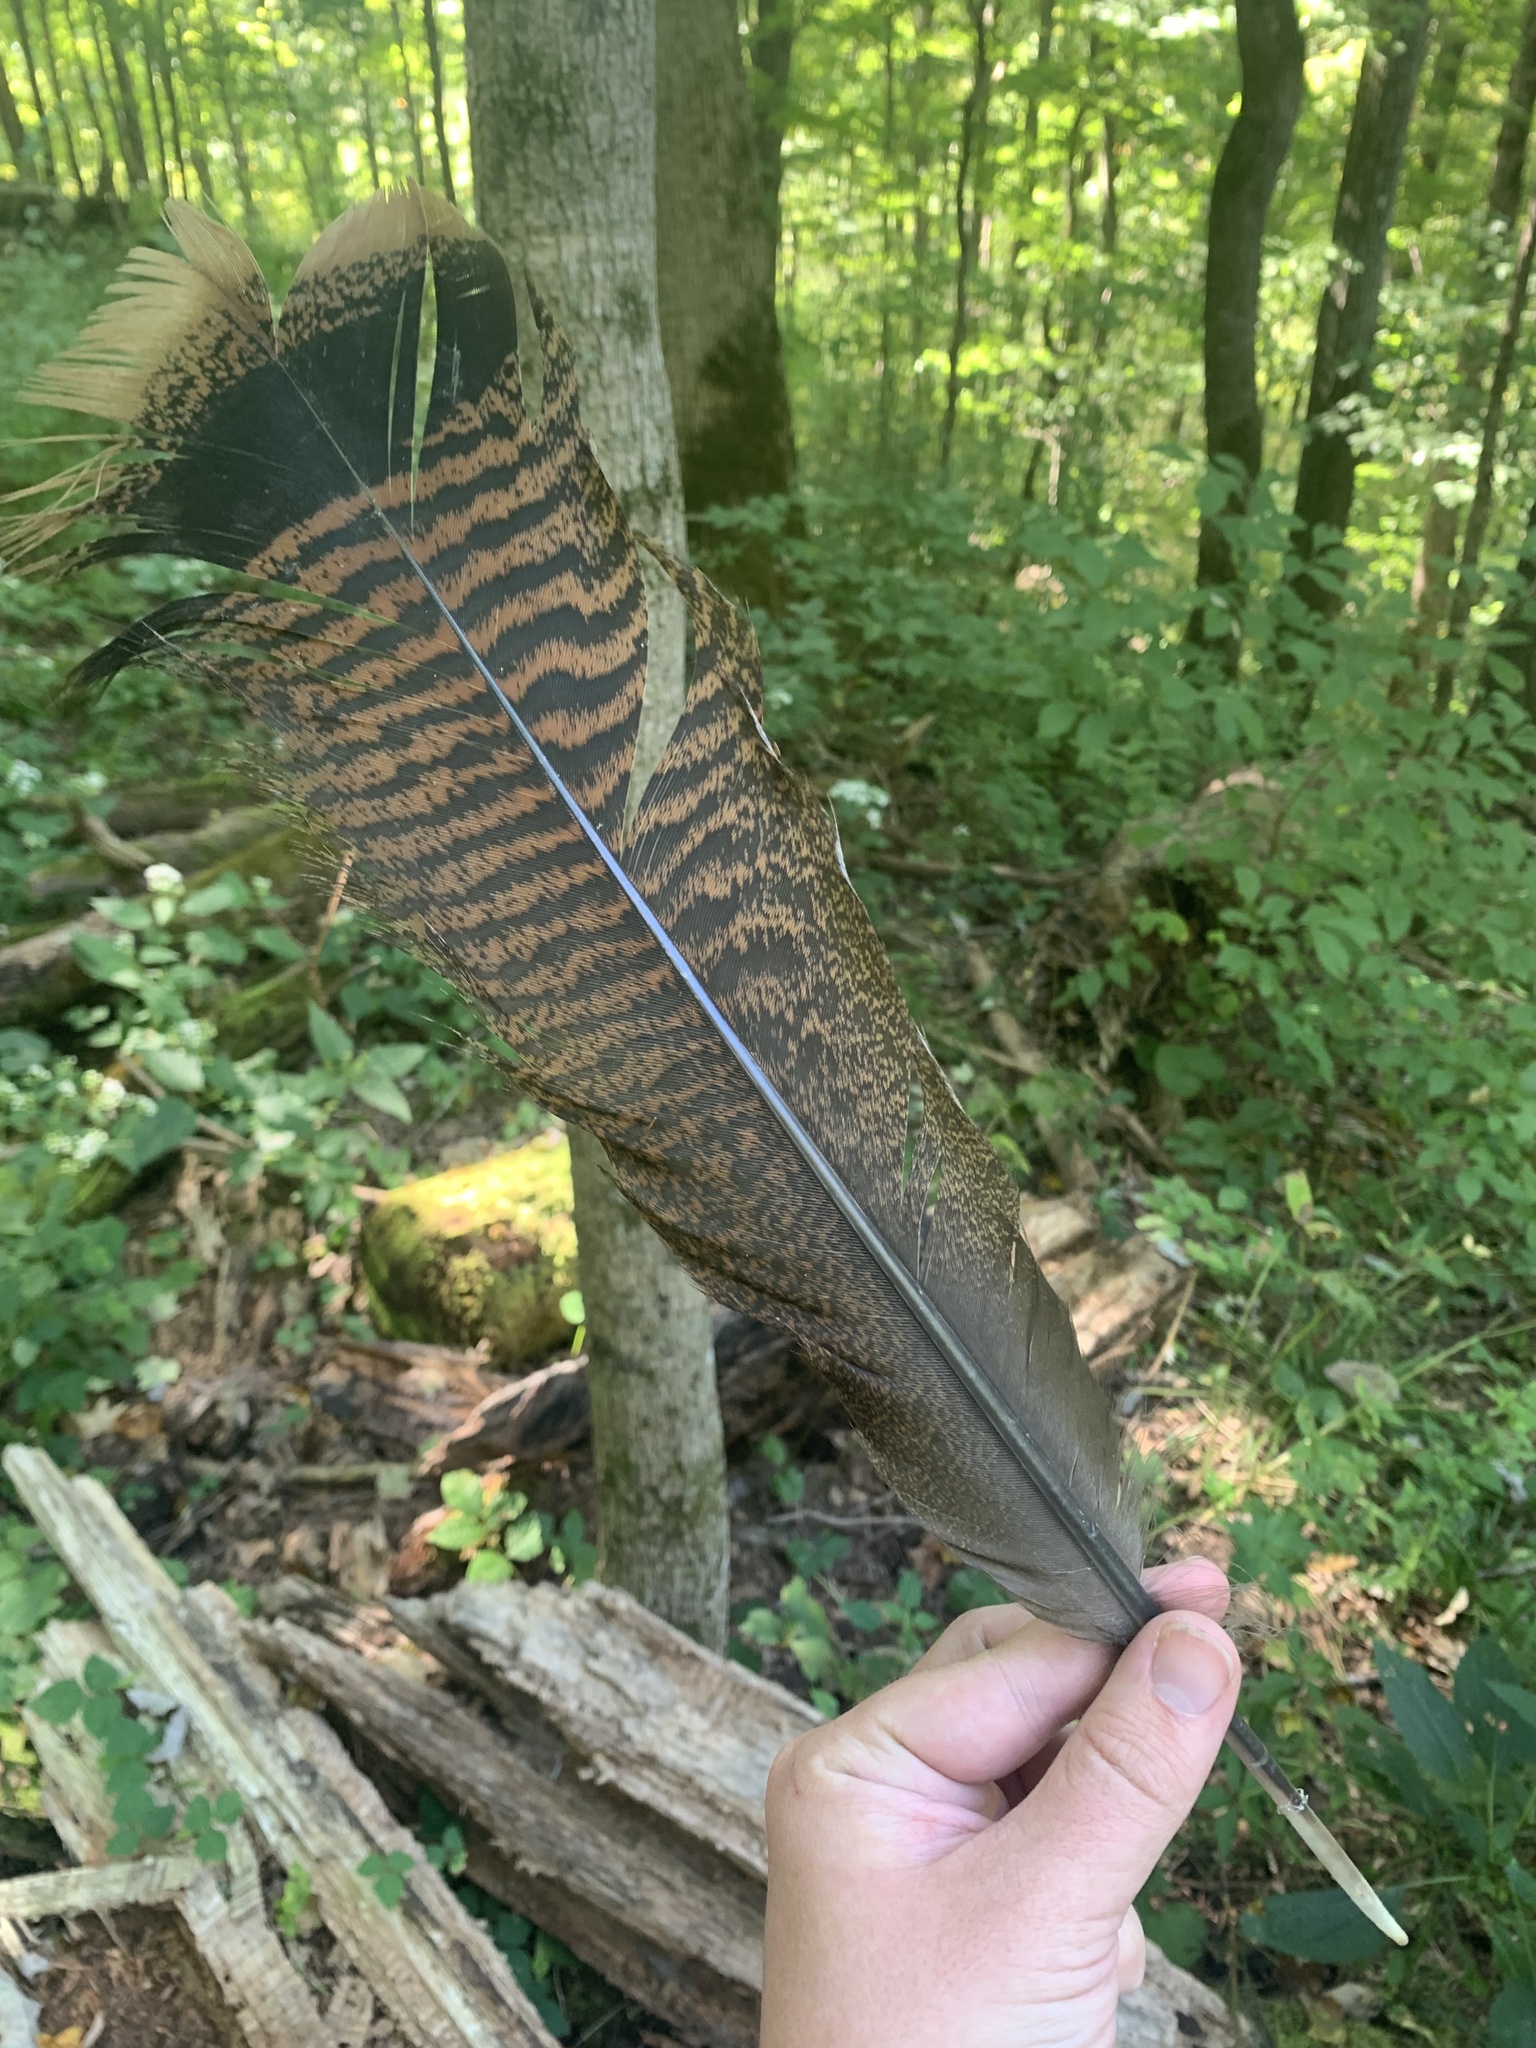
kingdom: Animalia
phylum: Chordata
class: Aves
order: Galliformes
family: Phasianidae
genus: Meleagris
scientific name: Meleagris gallopavo
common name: Wild turkey
